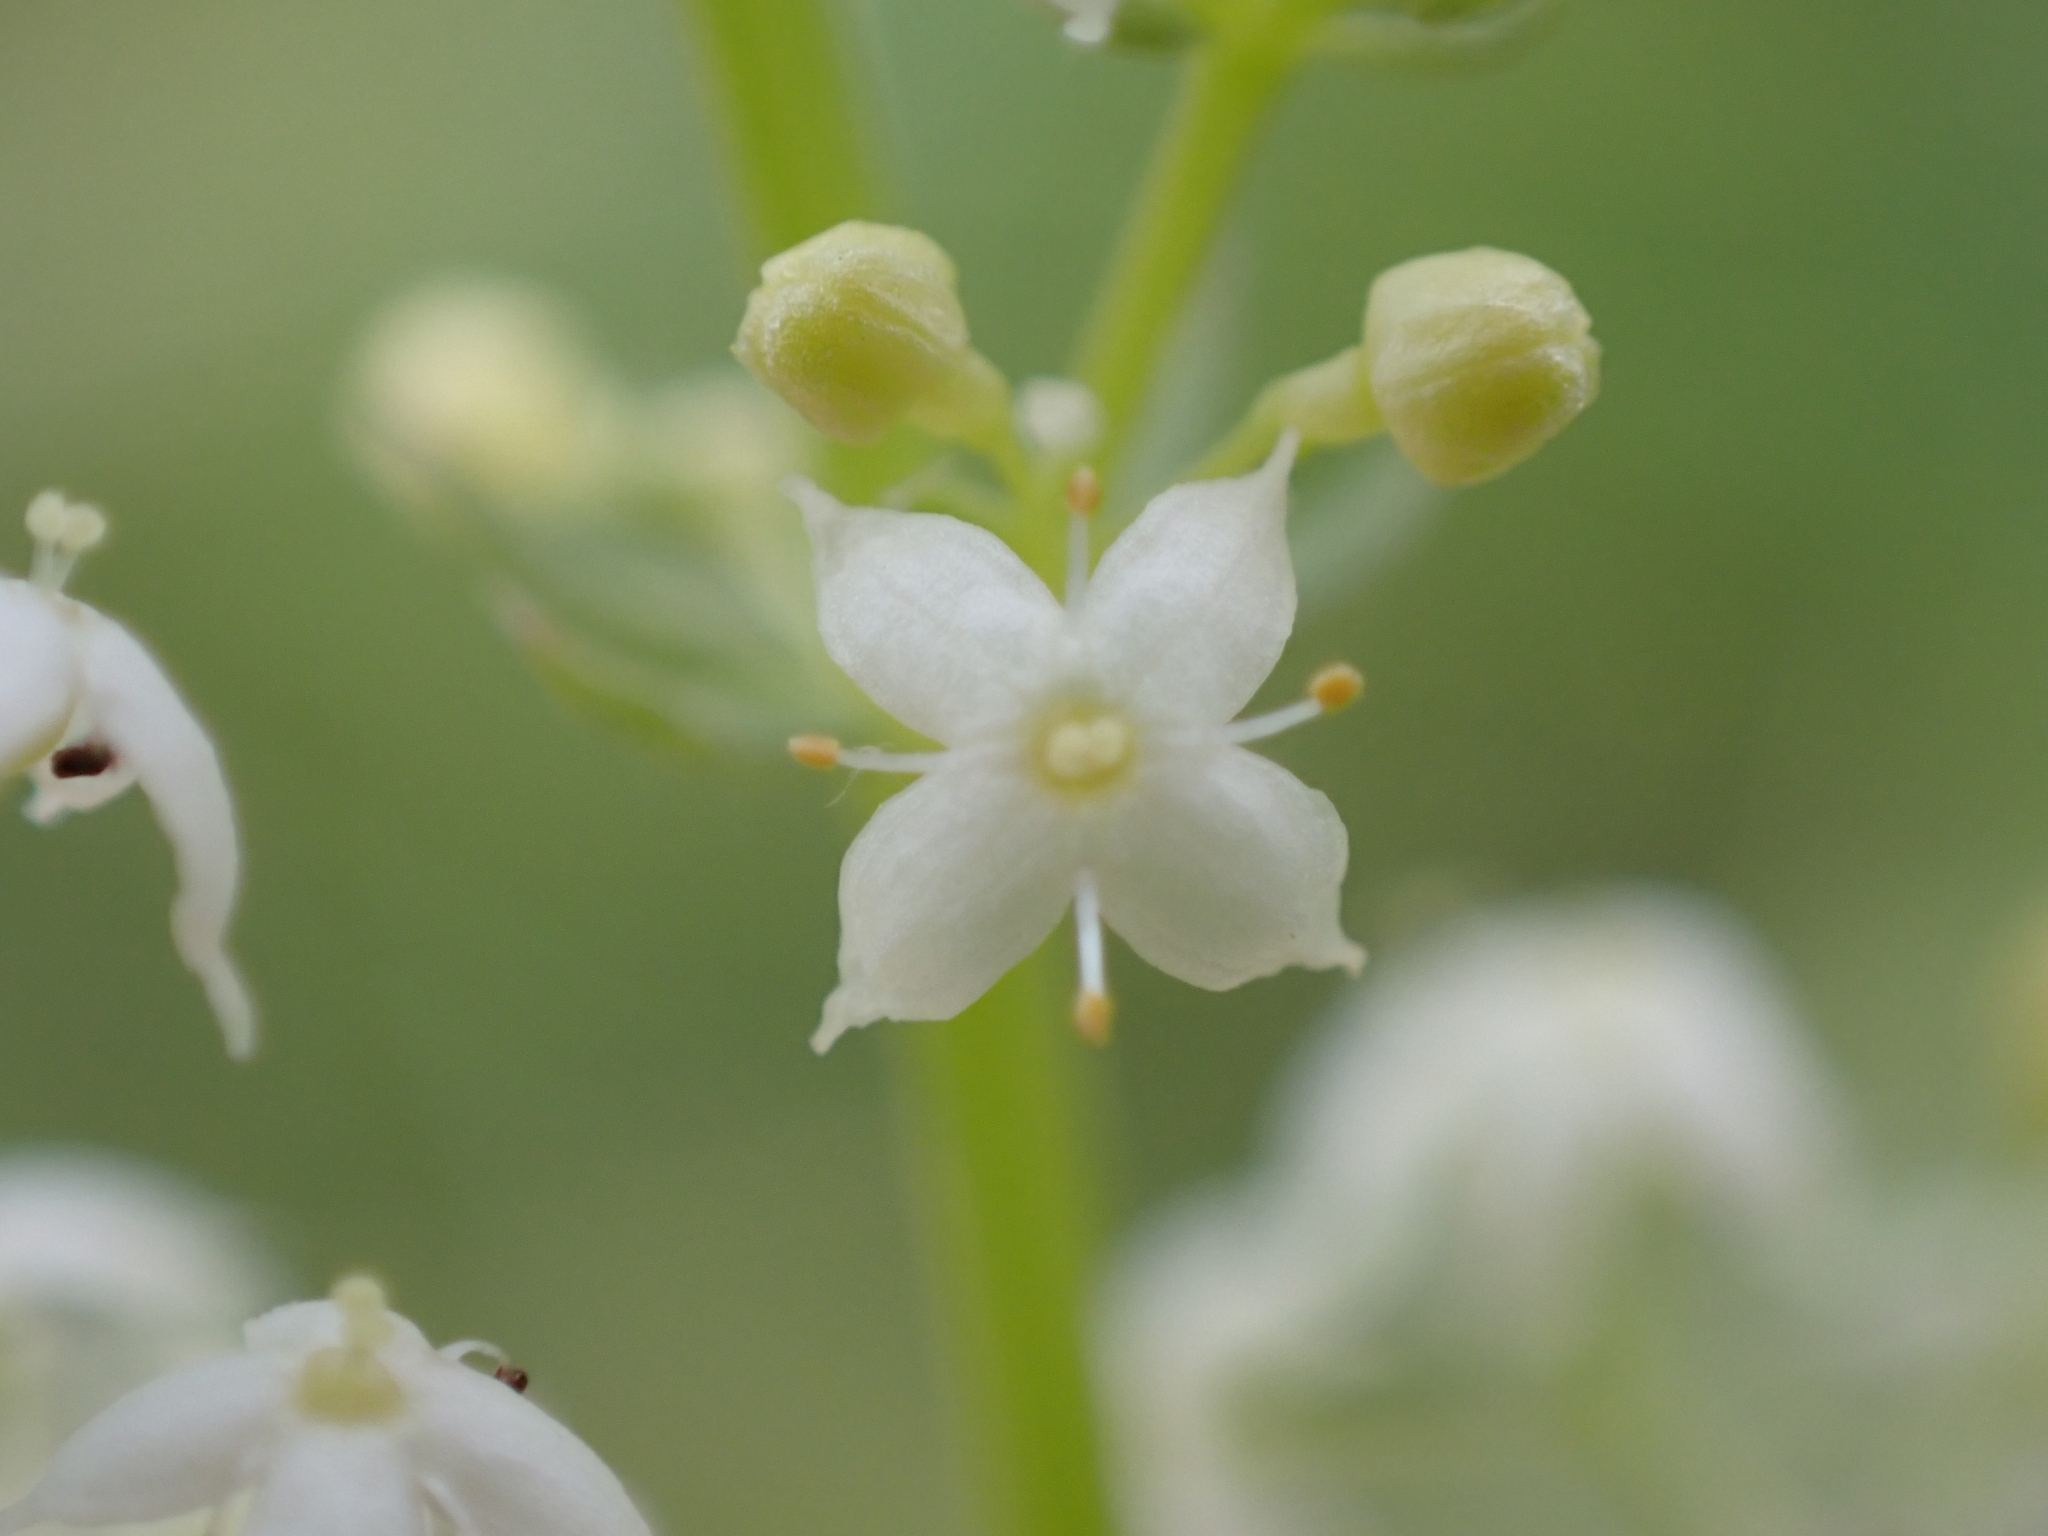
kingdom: Plantae
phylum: Tracheophyta
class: Magnoliopsida
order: Gentianales
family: Rubiaceae
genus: Galium
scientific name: Galium album
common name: White bedstraw
